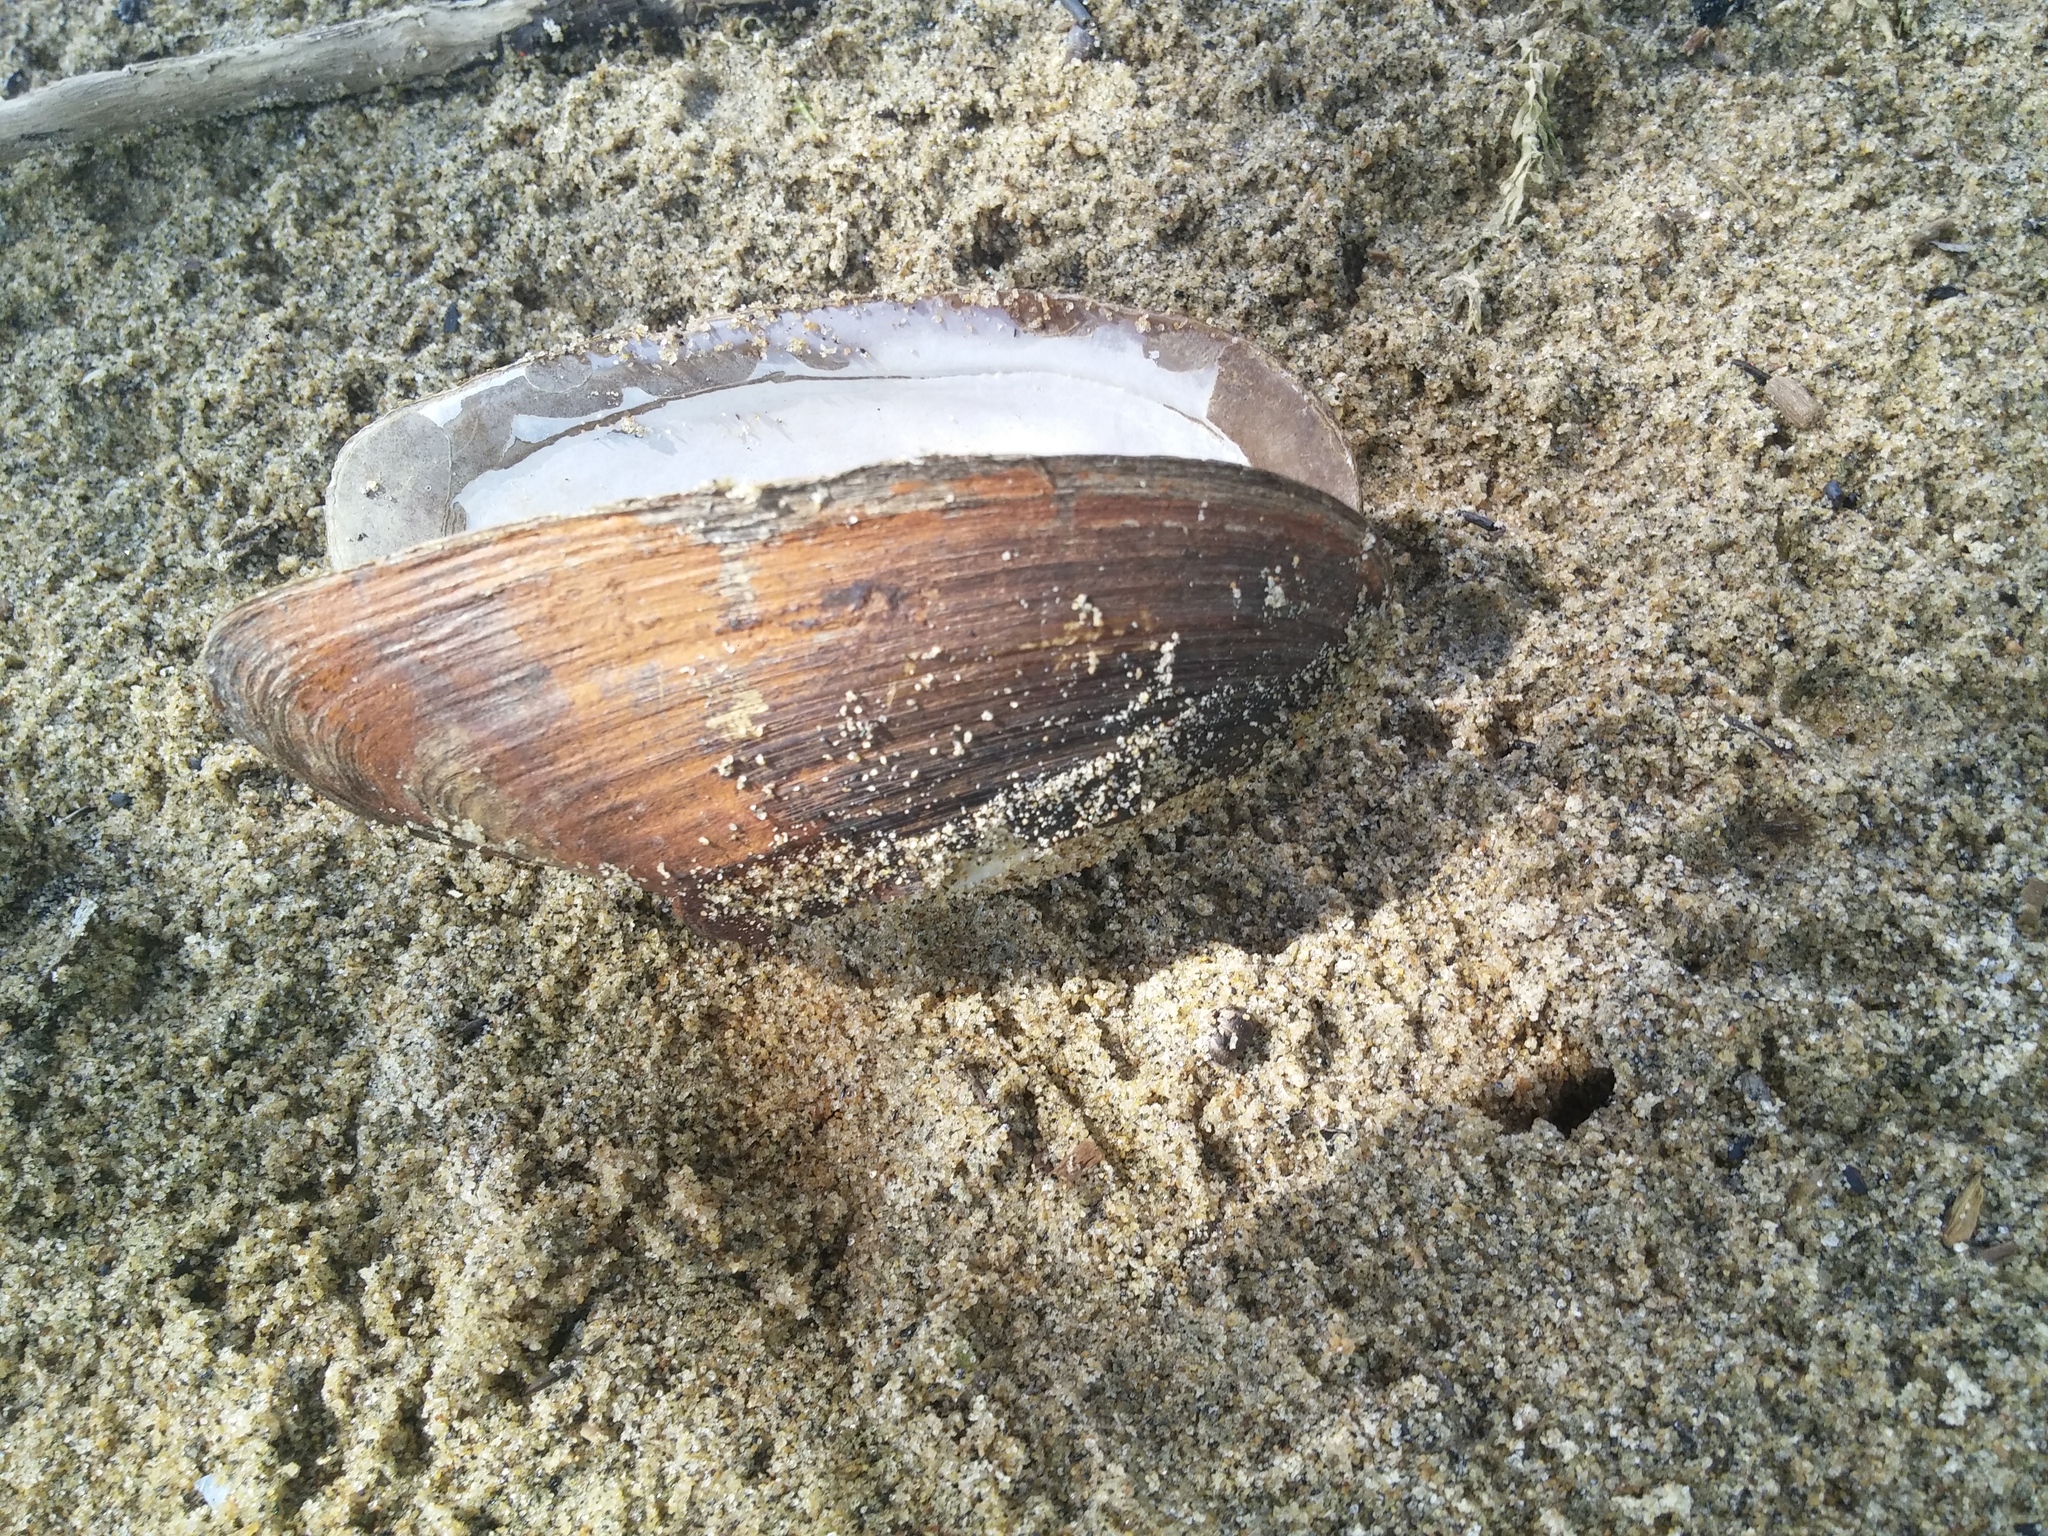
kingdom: Animalia
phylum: Mollusca
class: Bivalvia
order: Unionida
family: Unionidae
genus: Elliptio
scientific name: Elliptio complanata
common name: Eastern elliptio
